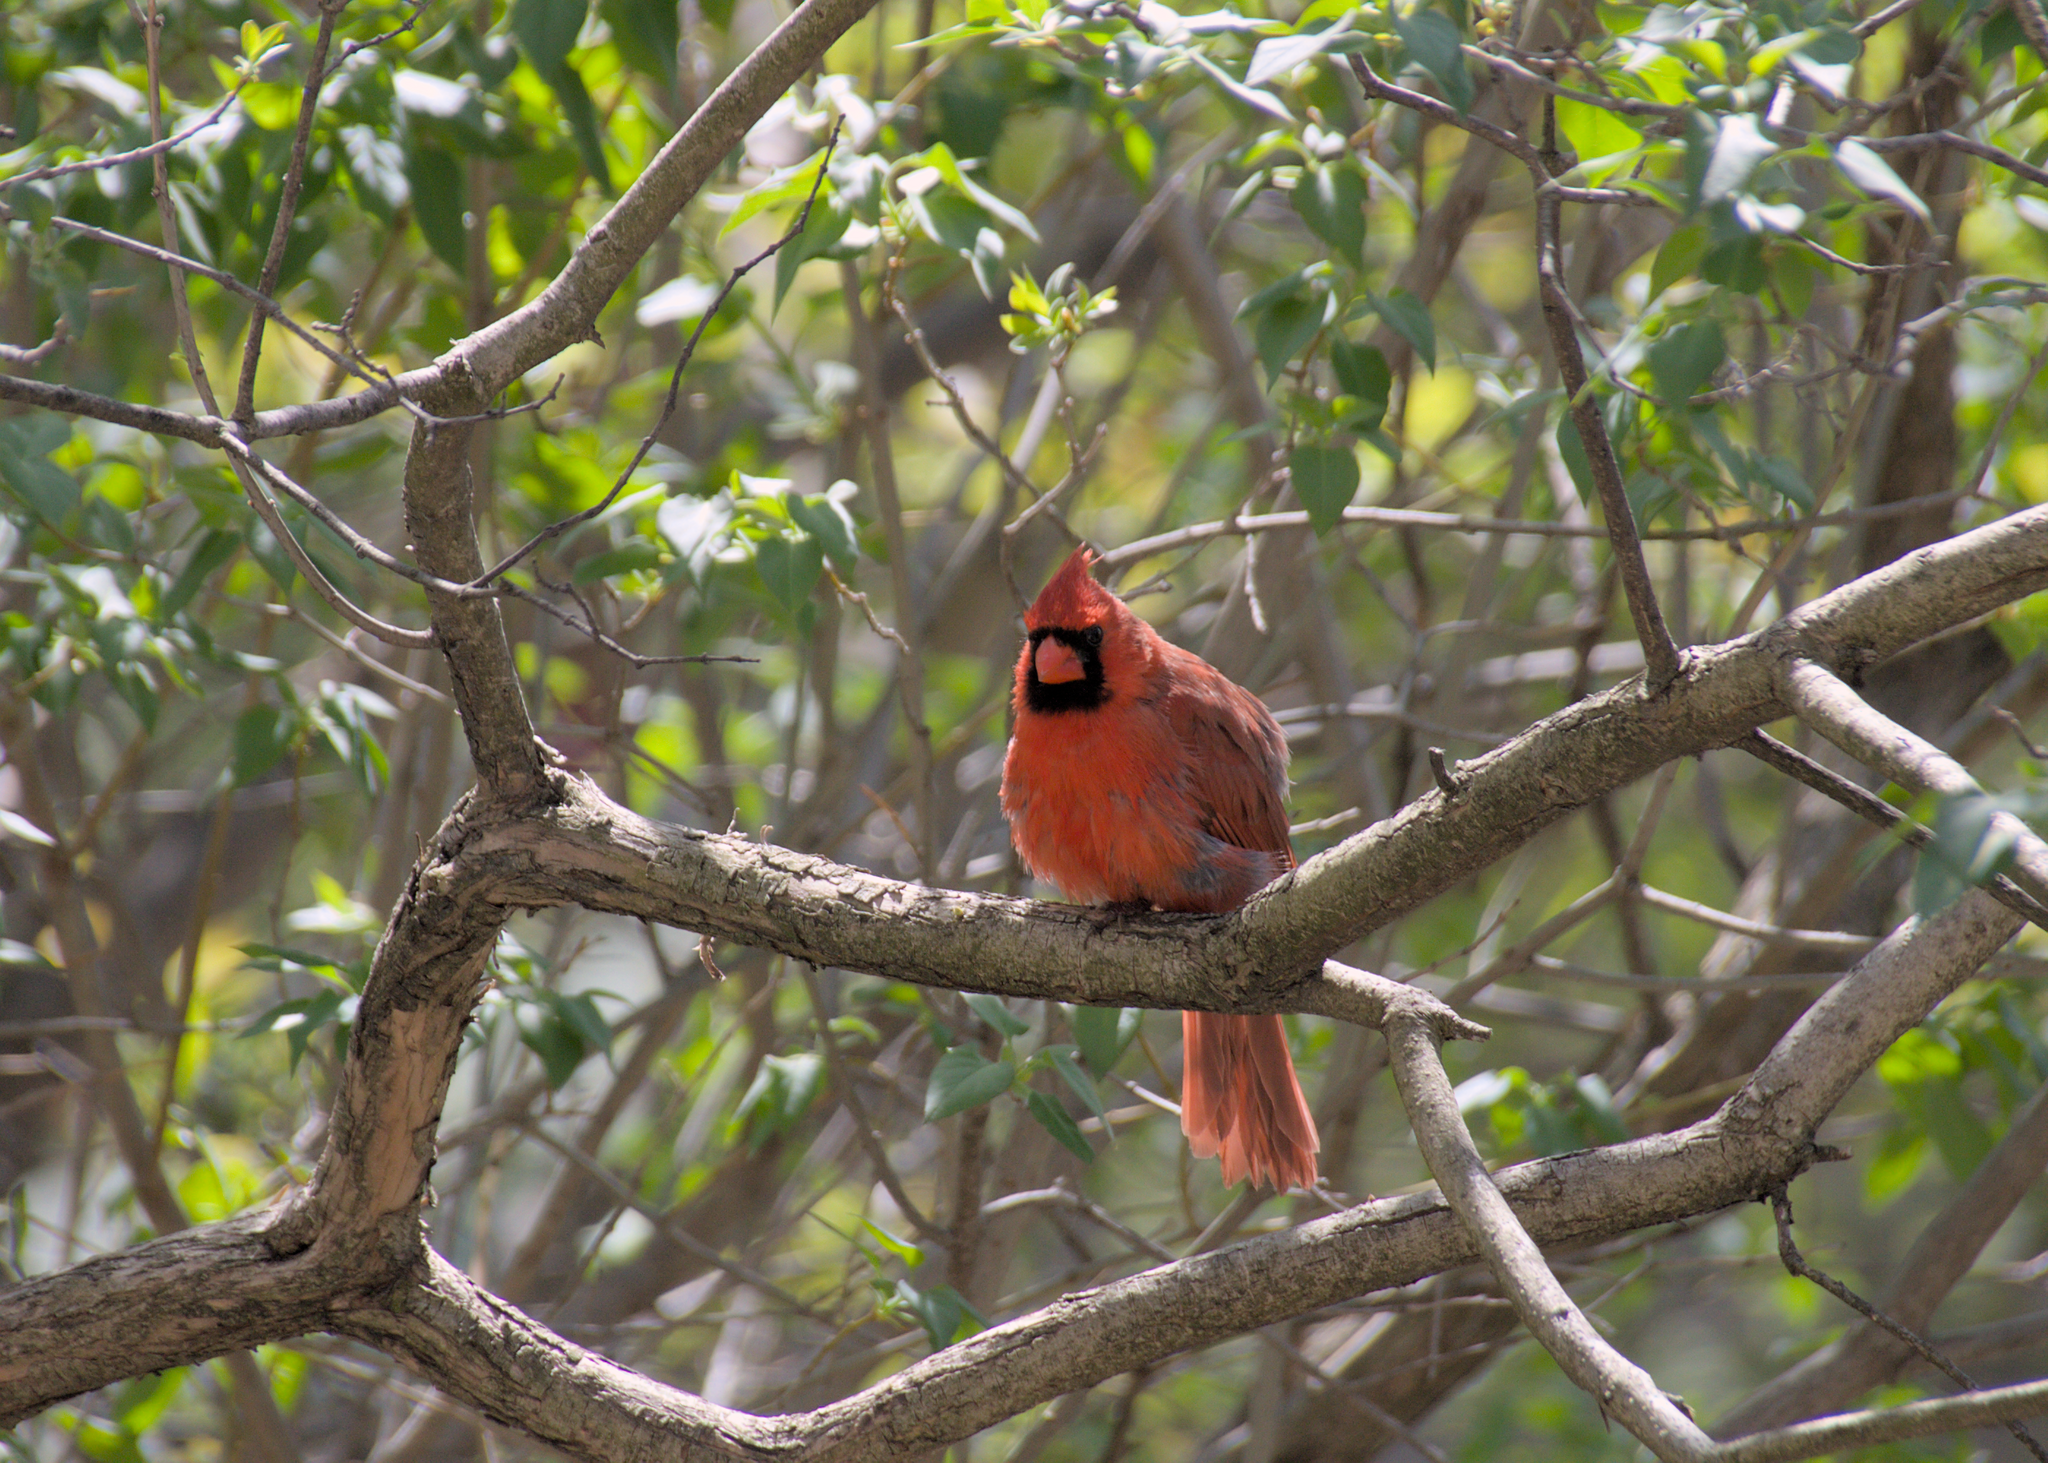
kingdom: Animalia
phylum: Chordata
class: Aves
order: Passeriformes
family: Cardinalidae
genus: Cardinalis
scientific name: Cardinalis cardinalis
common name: Northern cardinal
